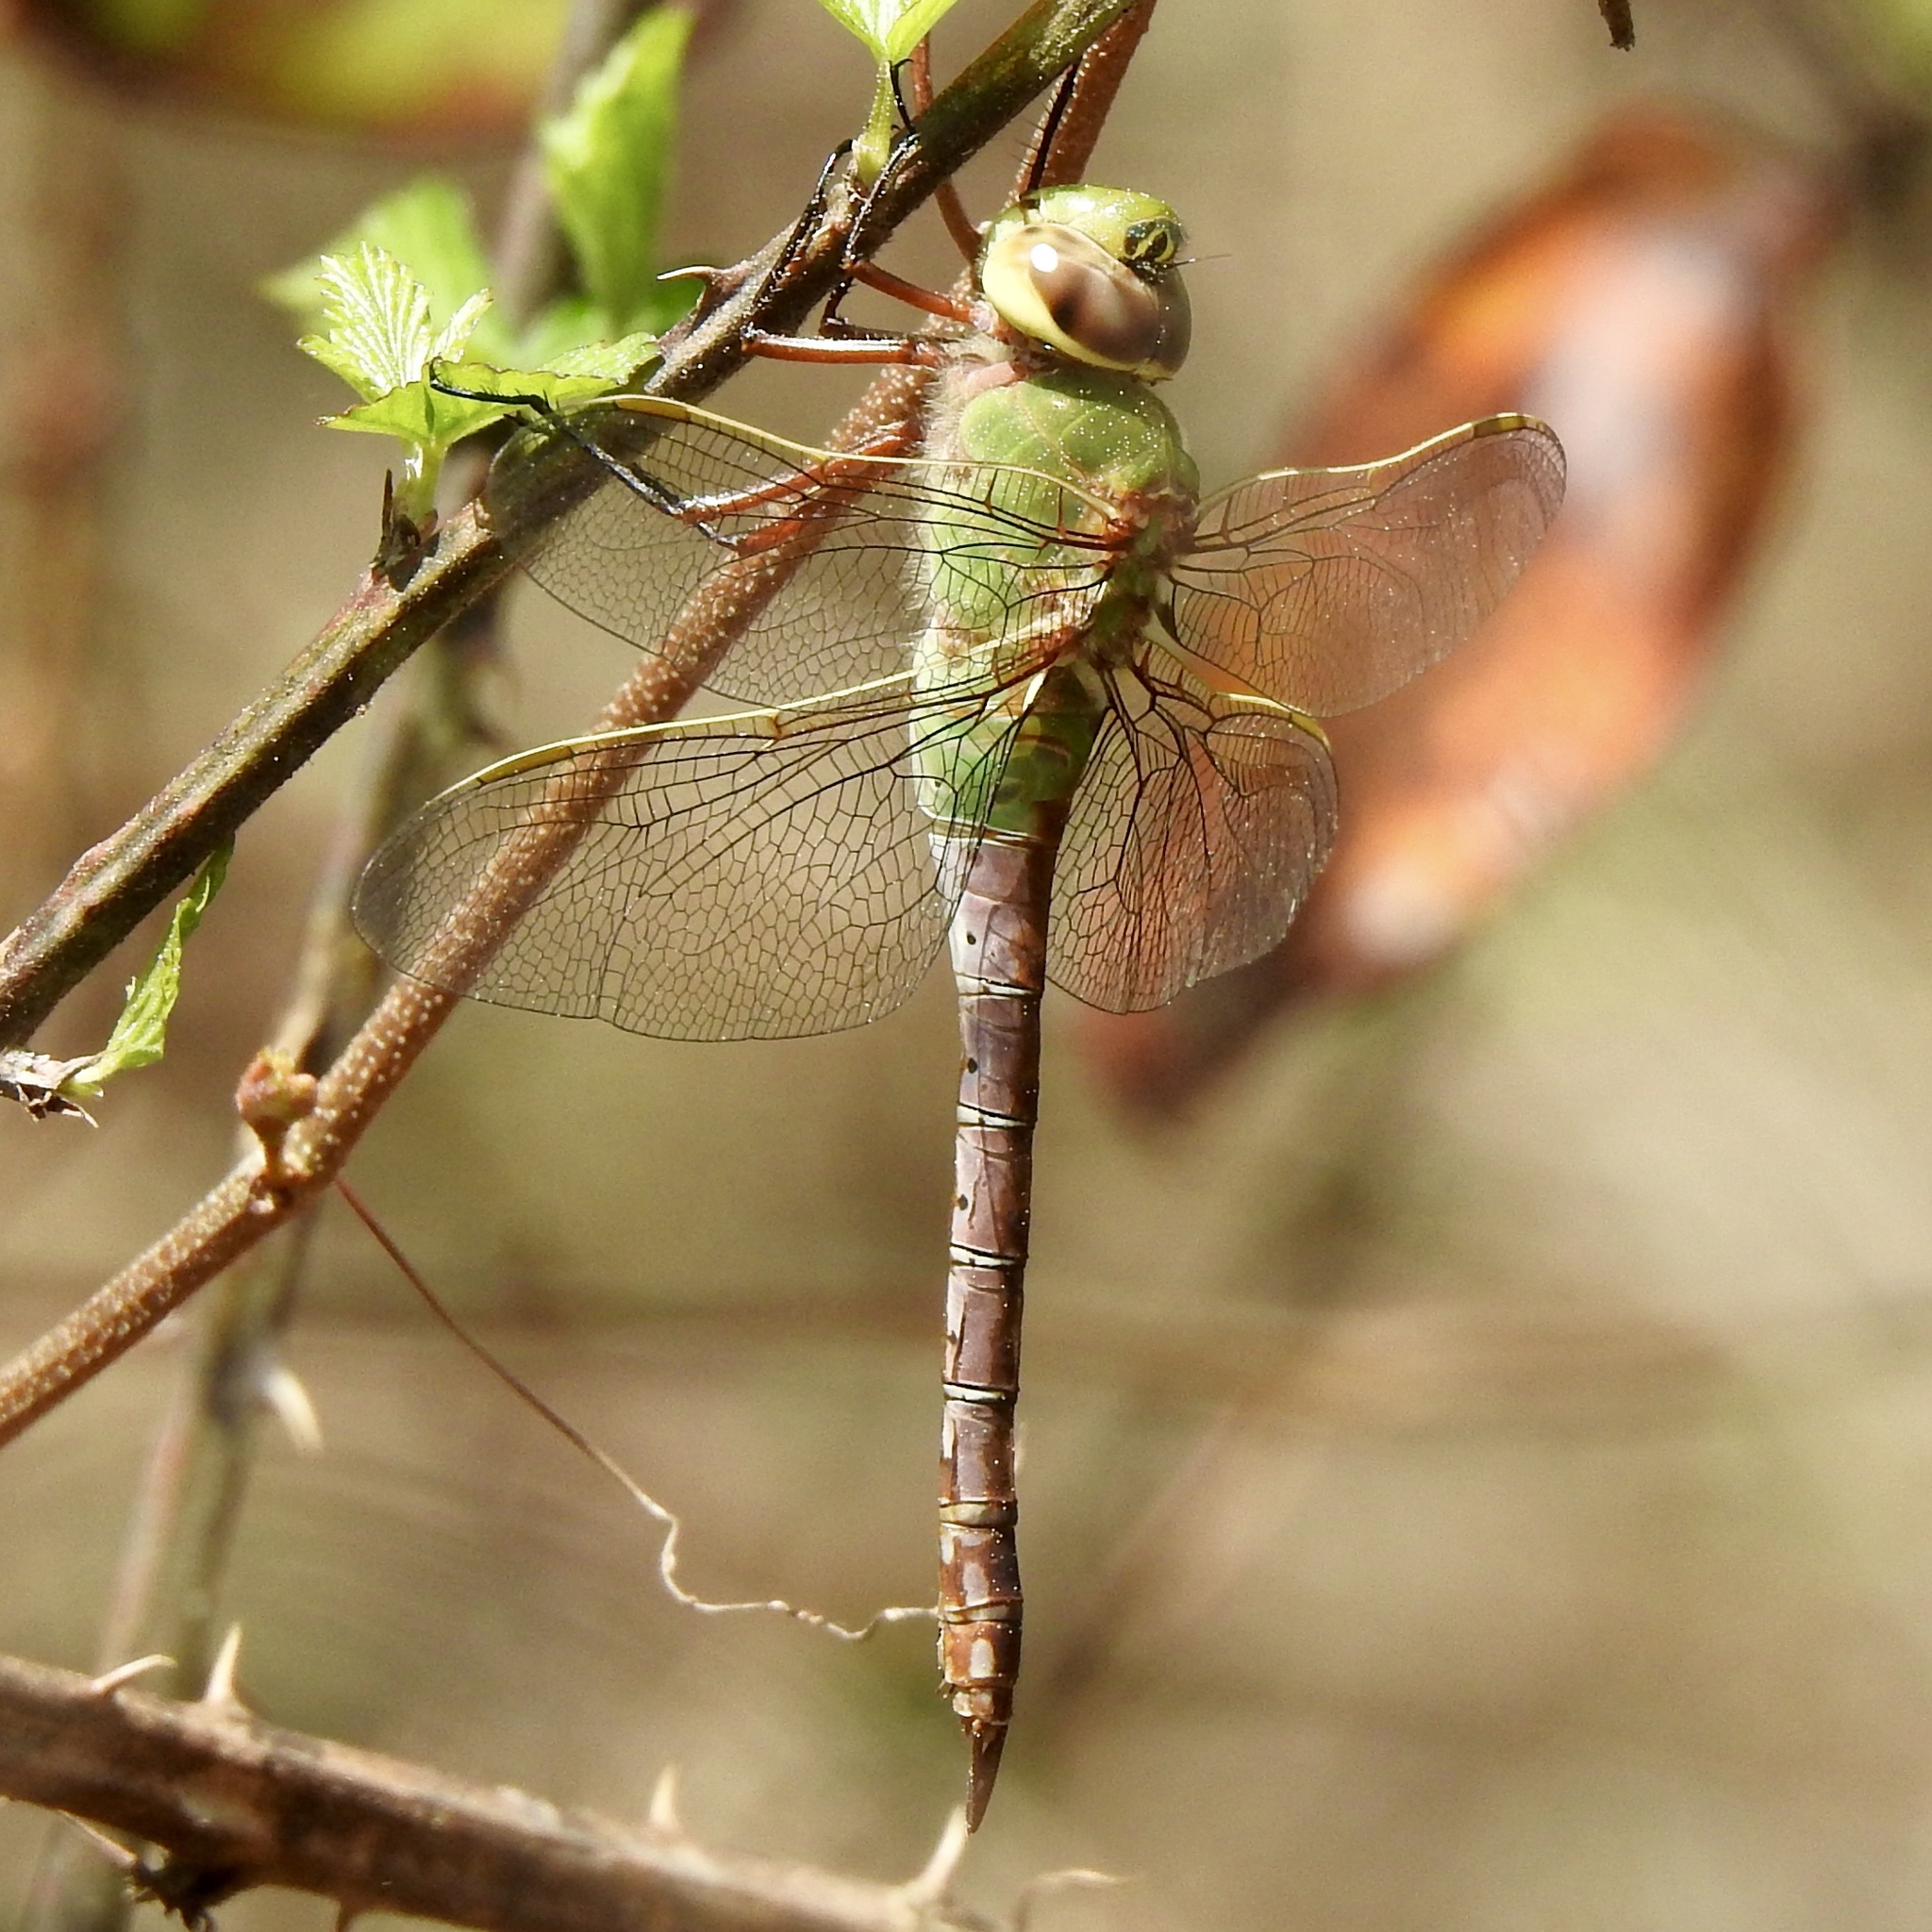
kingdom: Animalia
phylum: Arthropoda
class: Insecta
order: Odonata
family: Aeshnidae
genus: Anax
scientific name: Anax junius
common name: Common green darner
